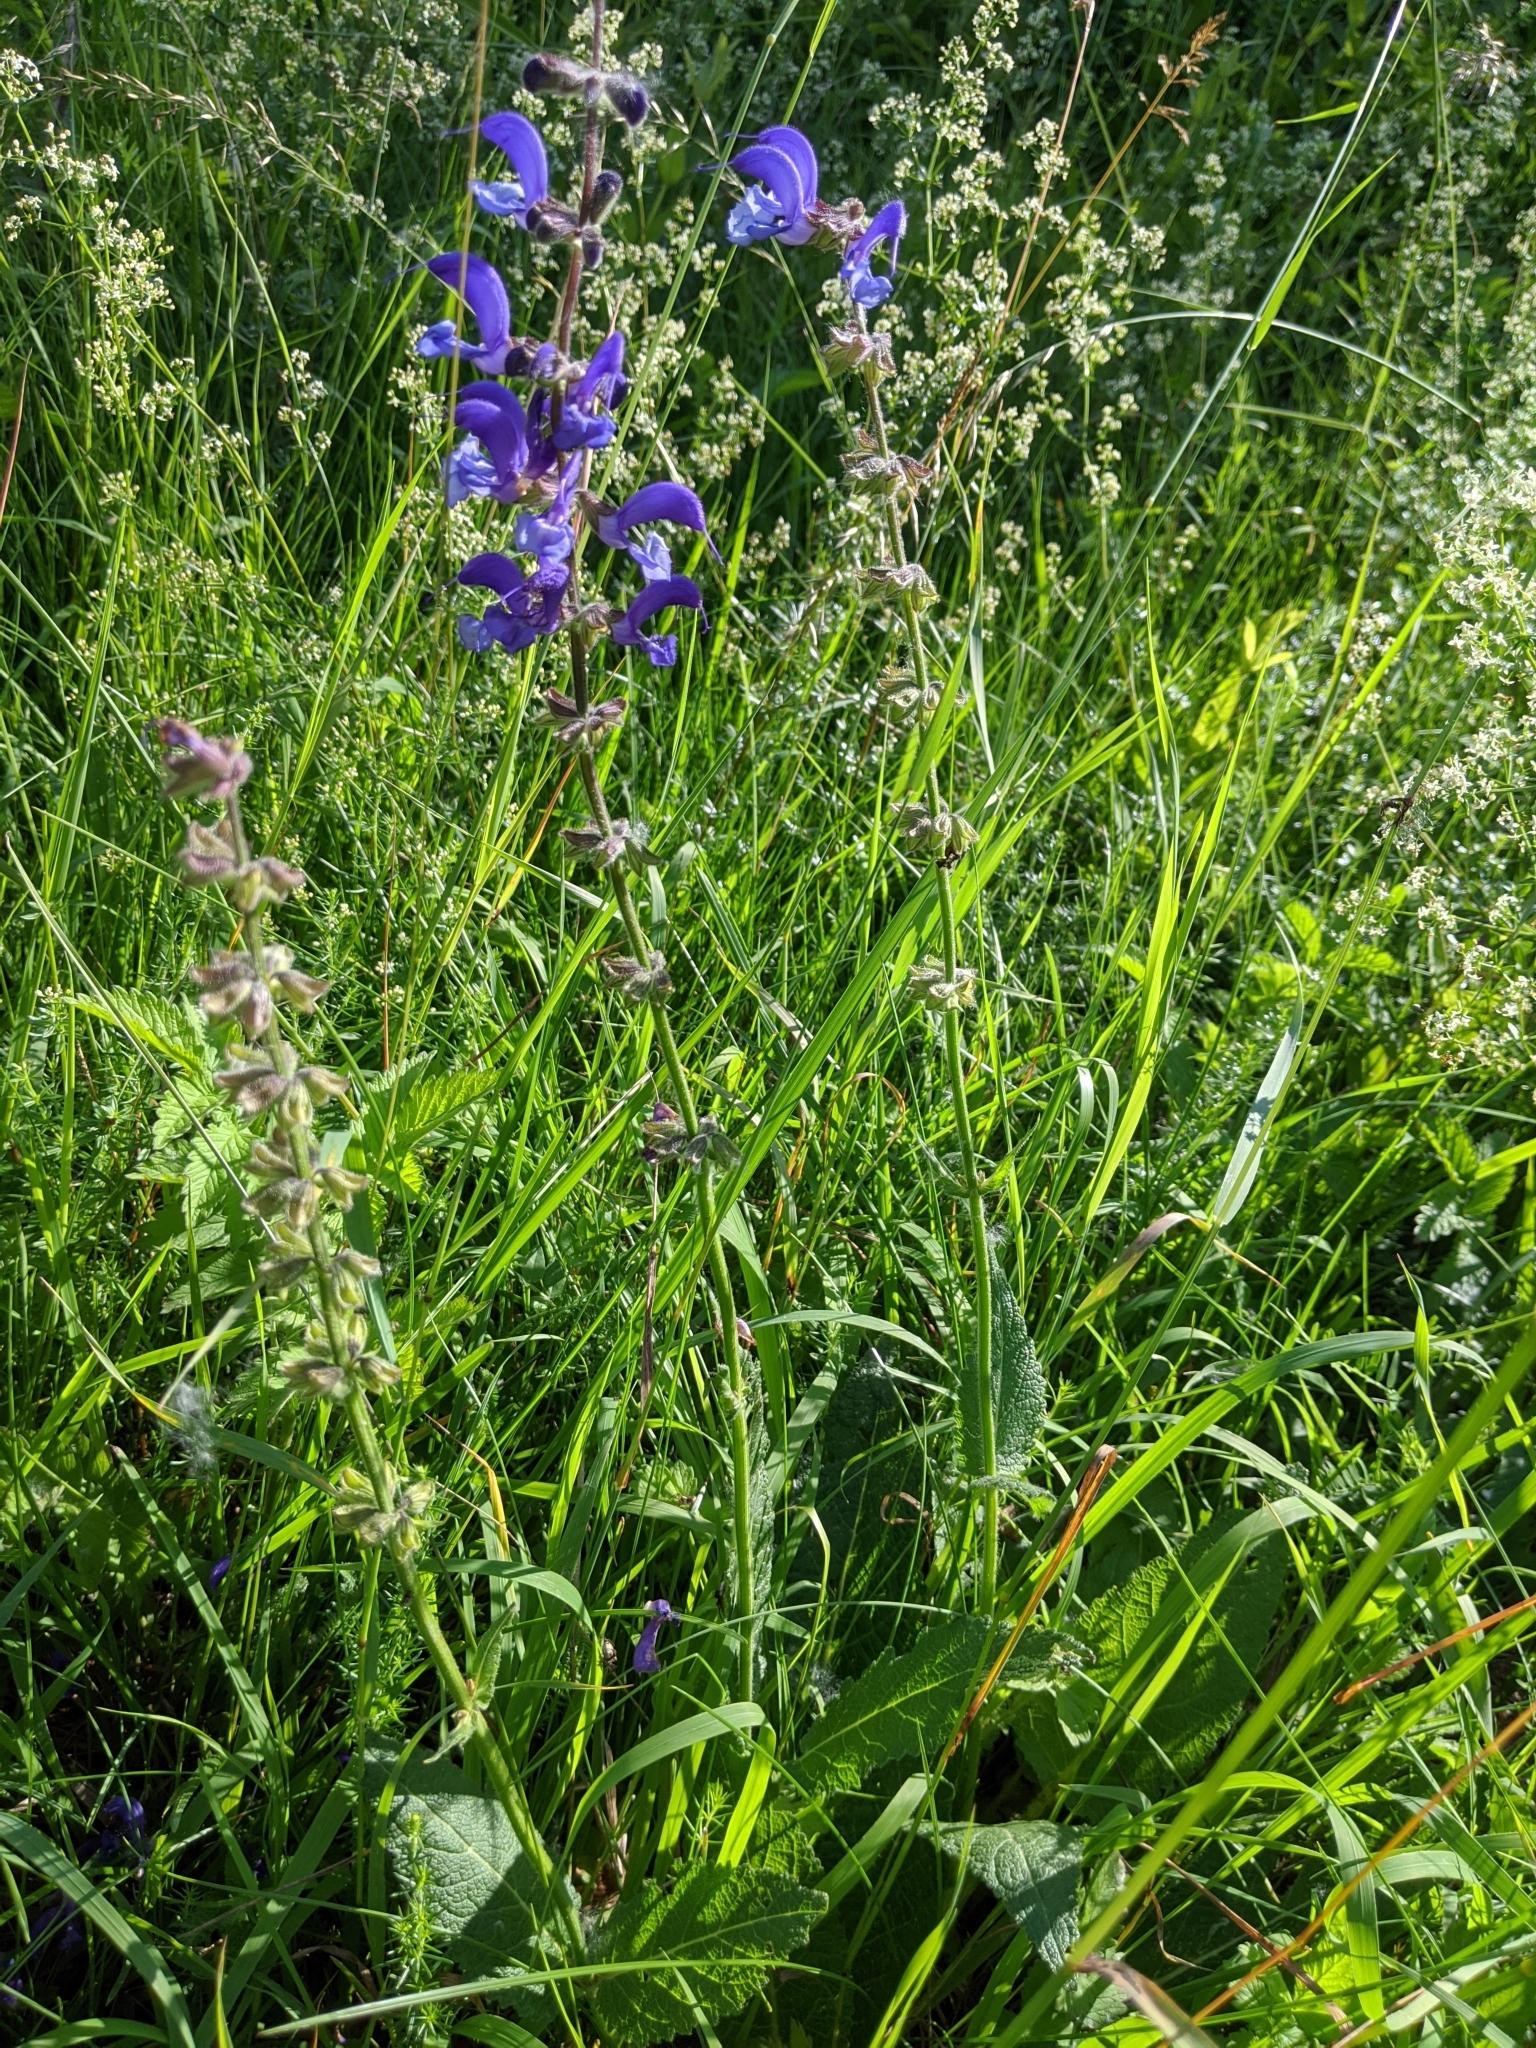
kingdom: Plantae
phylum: Tracheophyta
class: Magnoliopsida
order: Lamiales
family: Lamiaceae
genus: Salvia
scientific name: Salvia pratensis
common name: Meadow sage
